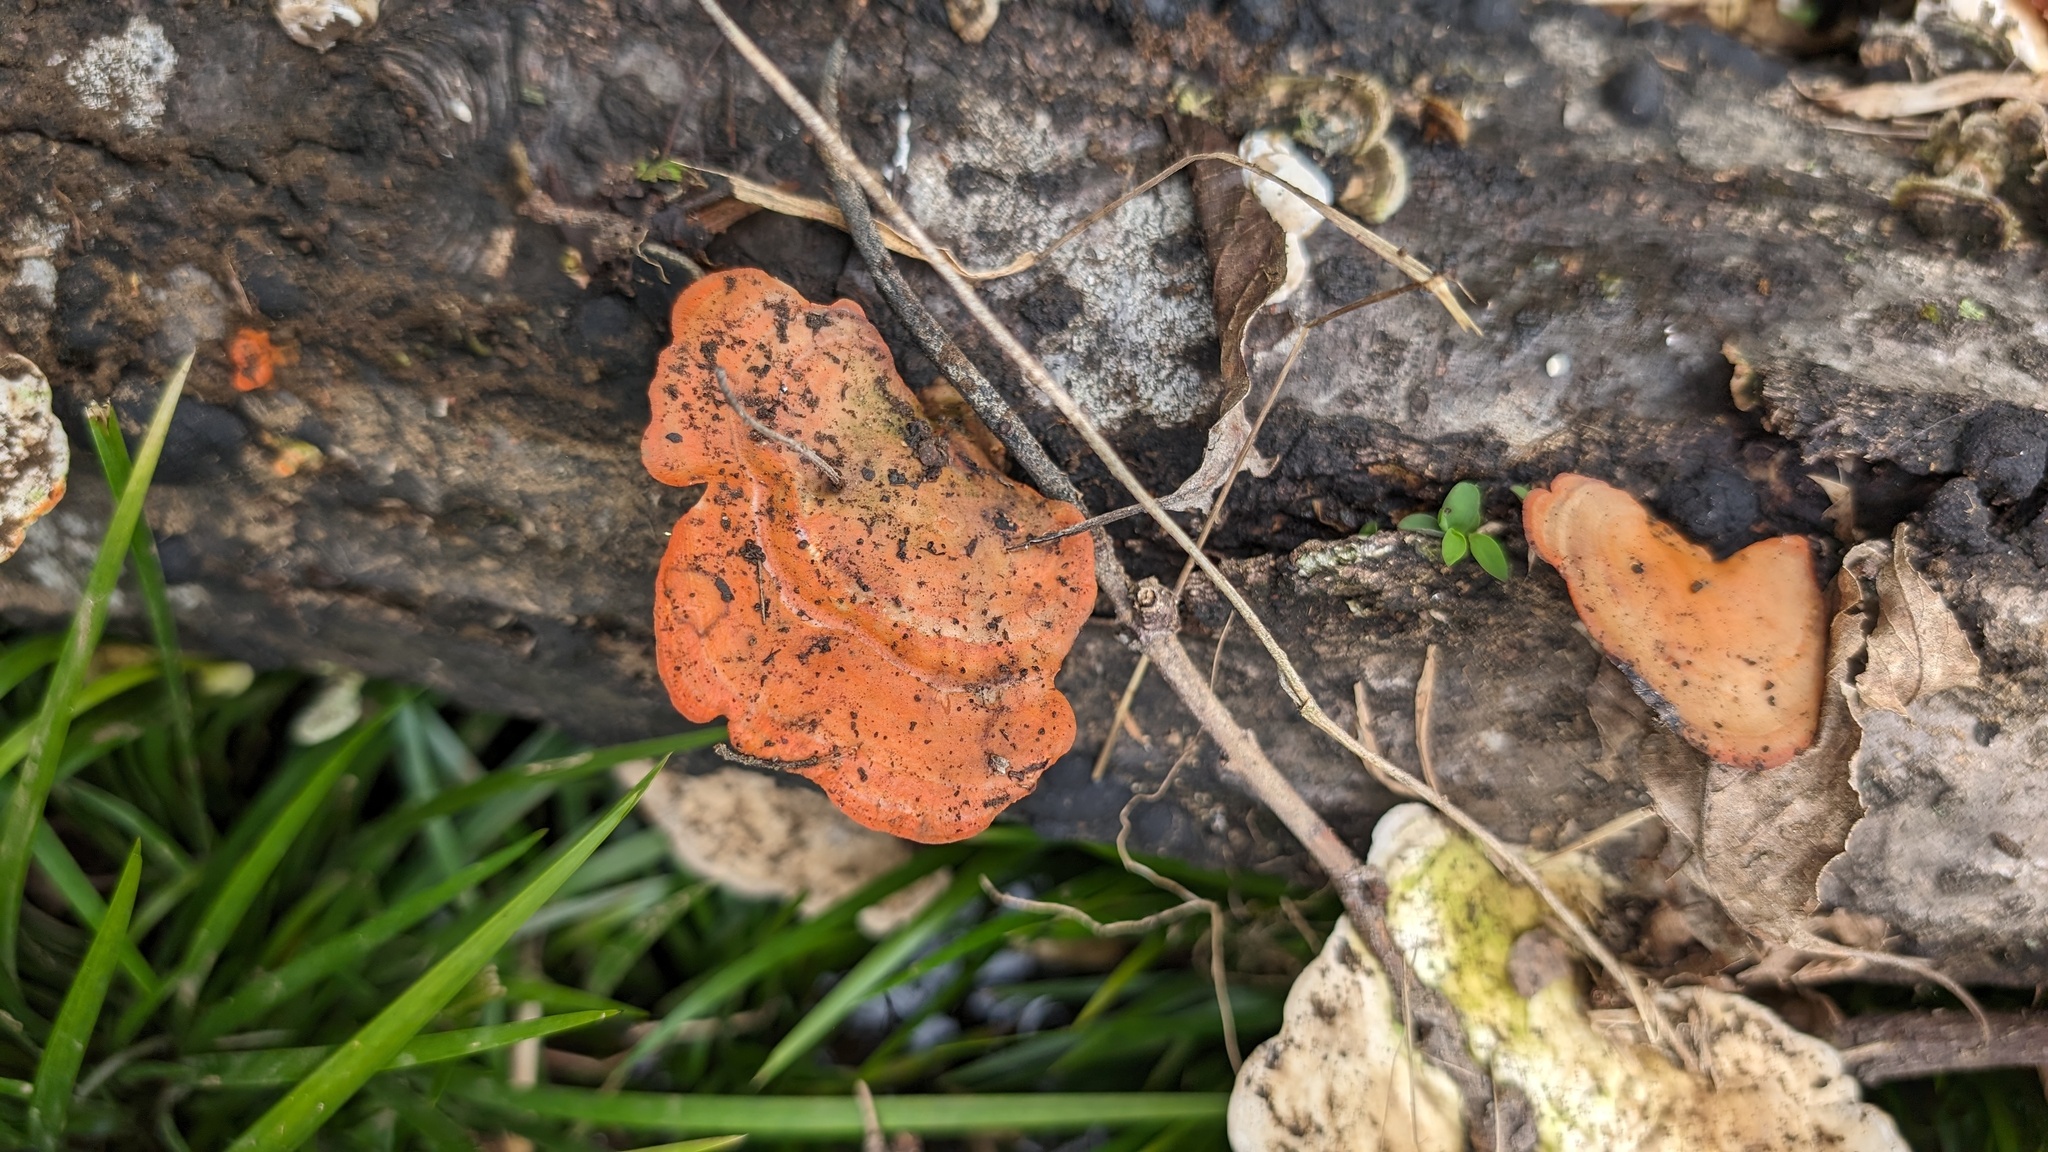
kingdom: Fungi
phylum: Basidiomycota
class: Agaricomycetes
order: Polyporales
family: Polyporaceae
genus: Trametes
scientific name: Trametes coccinea
